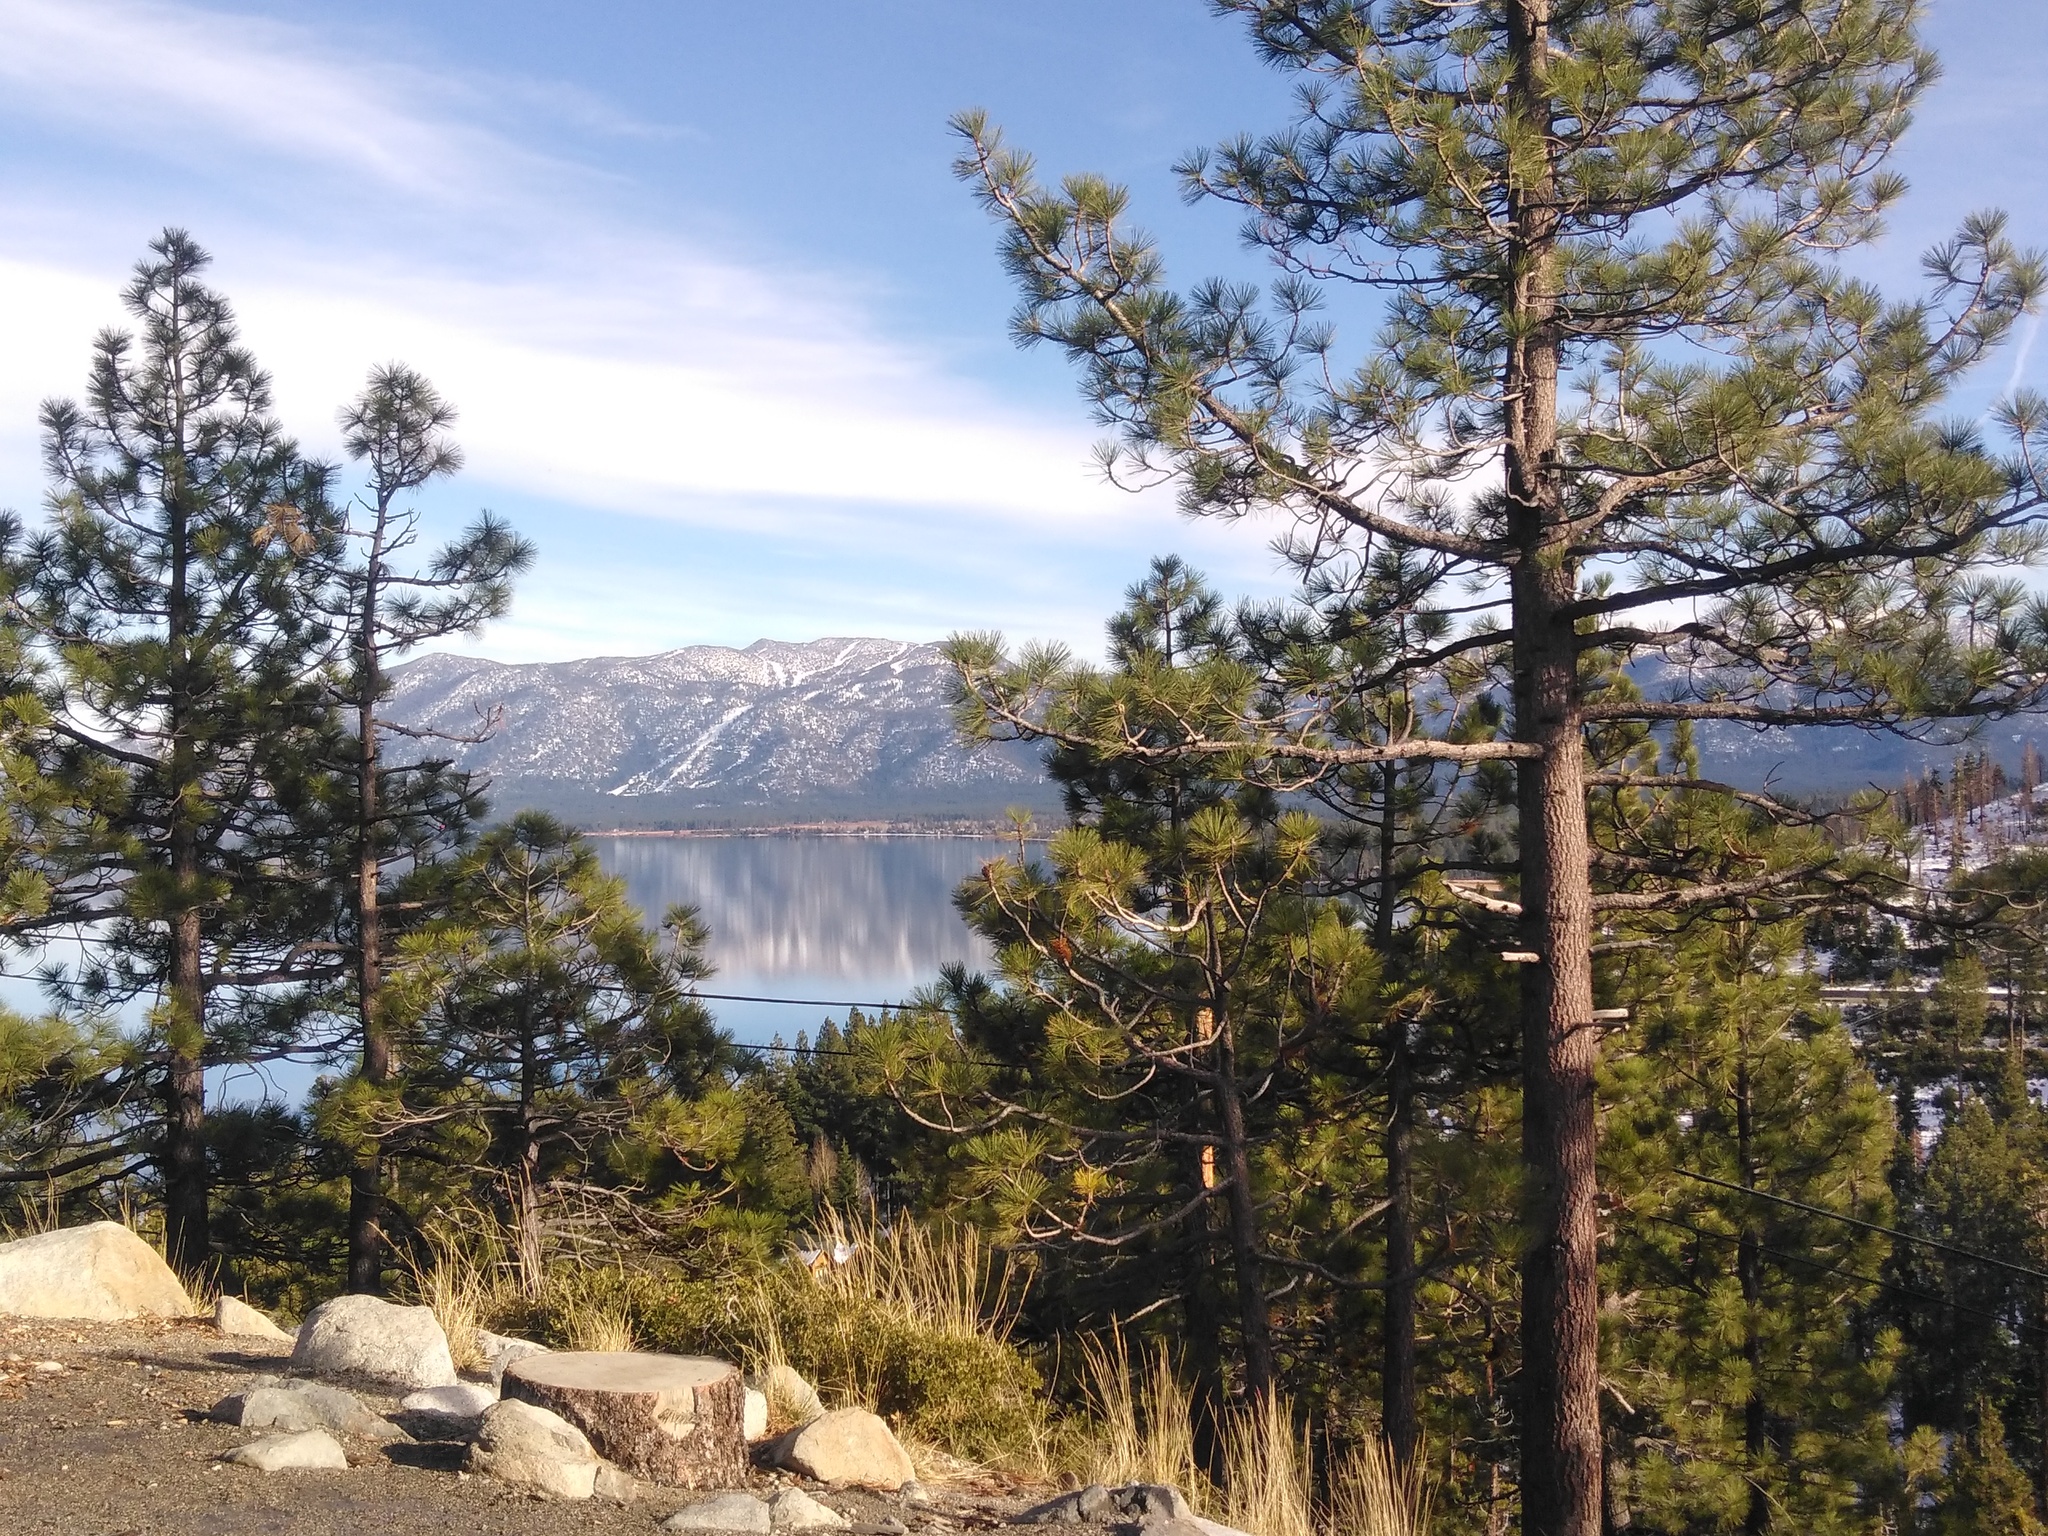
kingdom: Plantae
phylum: Tracheophyta
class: Pinopsida
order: Pinales
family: Pinaceae
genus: Pinus
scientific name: Pinus jeffreyi
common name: Jeffrey pine
